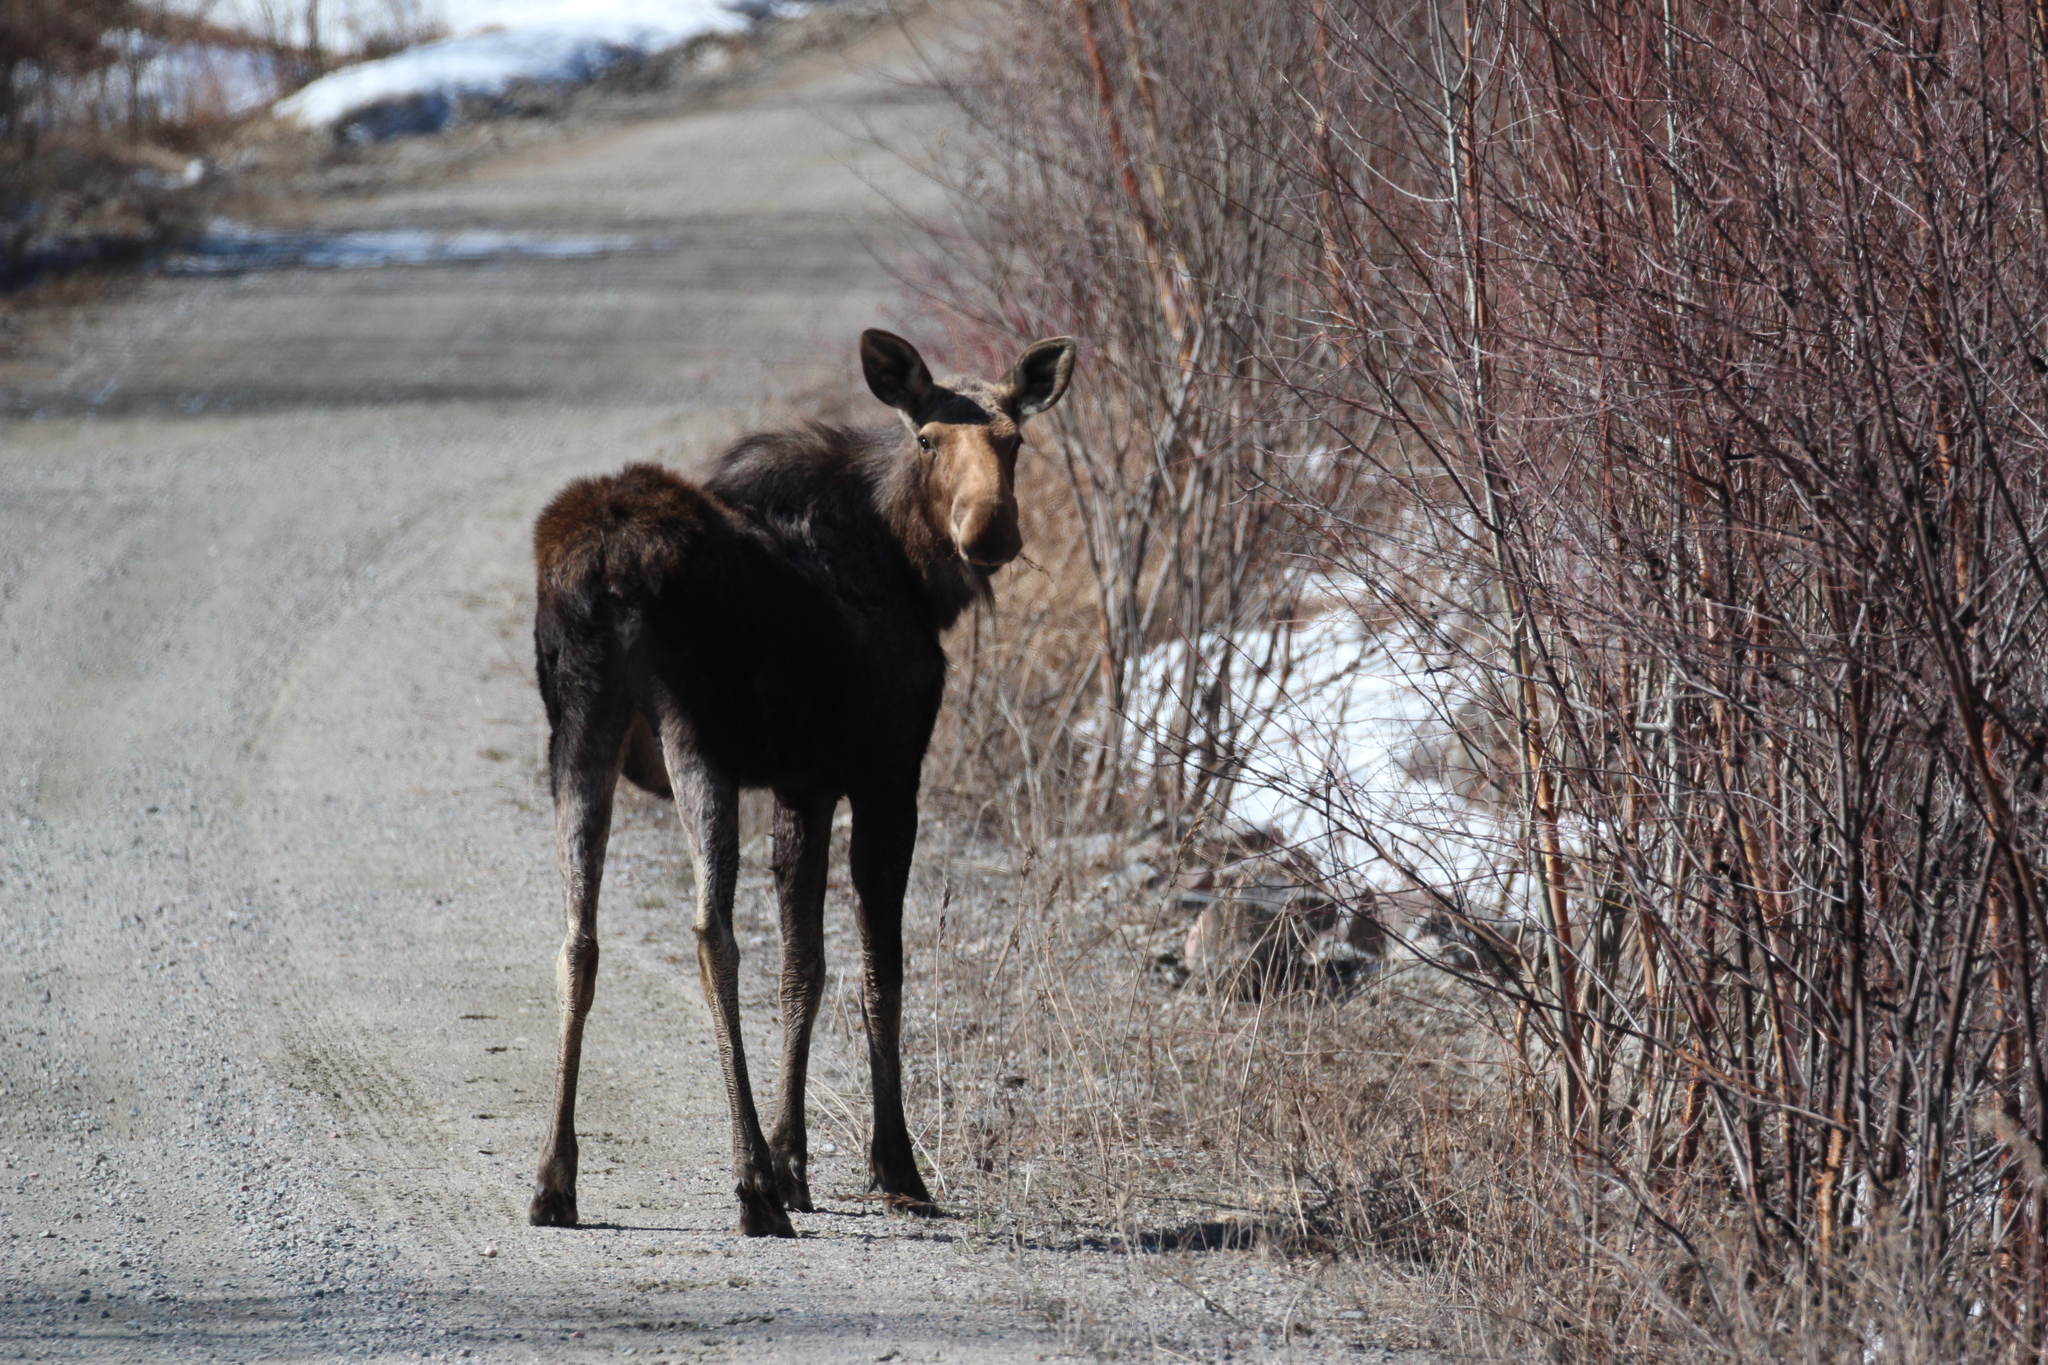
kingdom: Animalia
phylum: Chordata
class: Mammalia
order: Artiodactyla
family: Cervidae
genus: Alces
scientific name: Alces alces
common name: Moose
